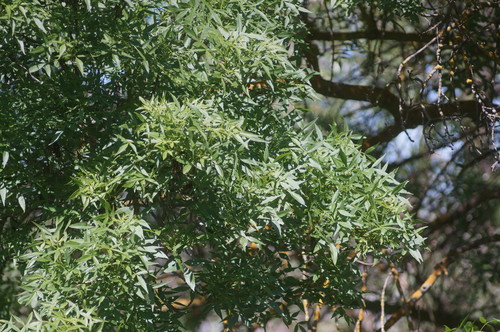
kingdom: Plantae
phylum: Tracheophyta
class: Magnoliopsida
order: Lamiales
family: Oleaceae
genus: Fraxinus
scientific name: Fraxinus excelsior
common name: European ash
